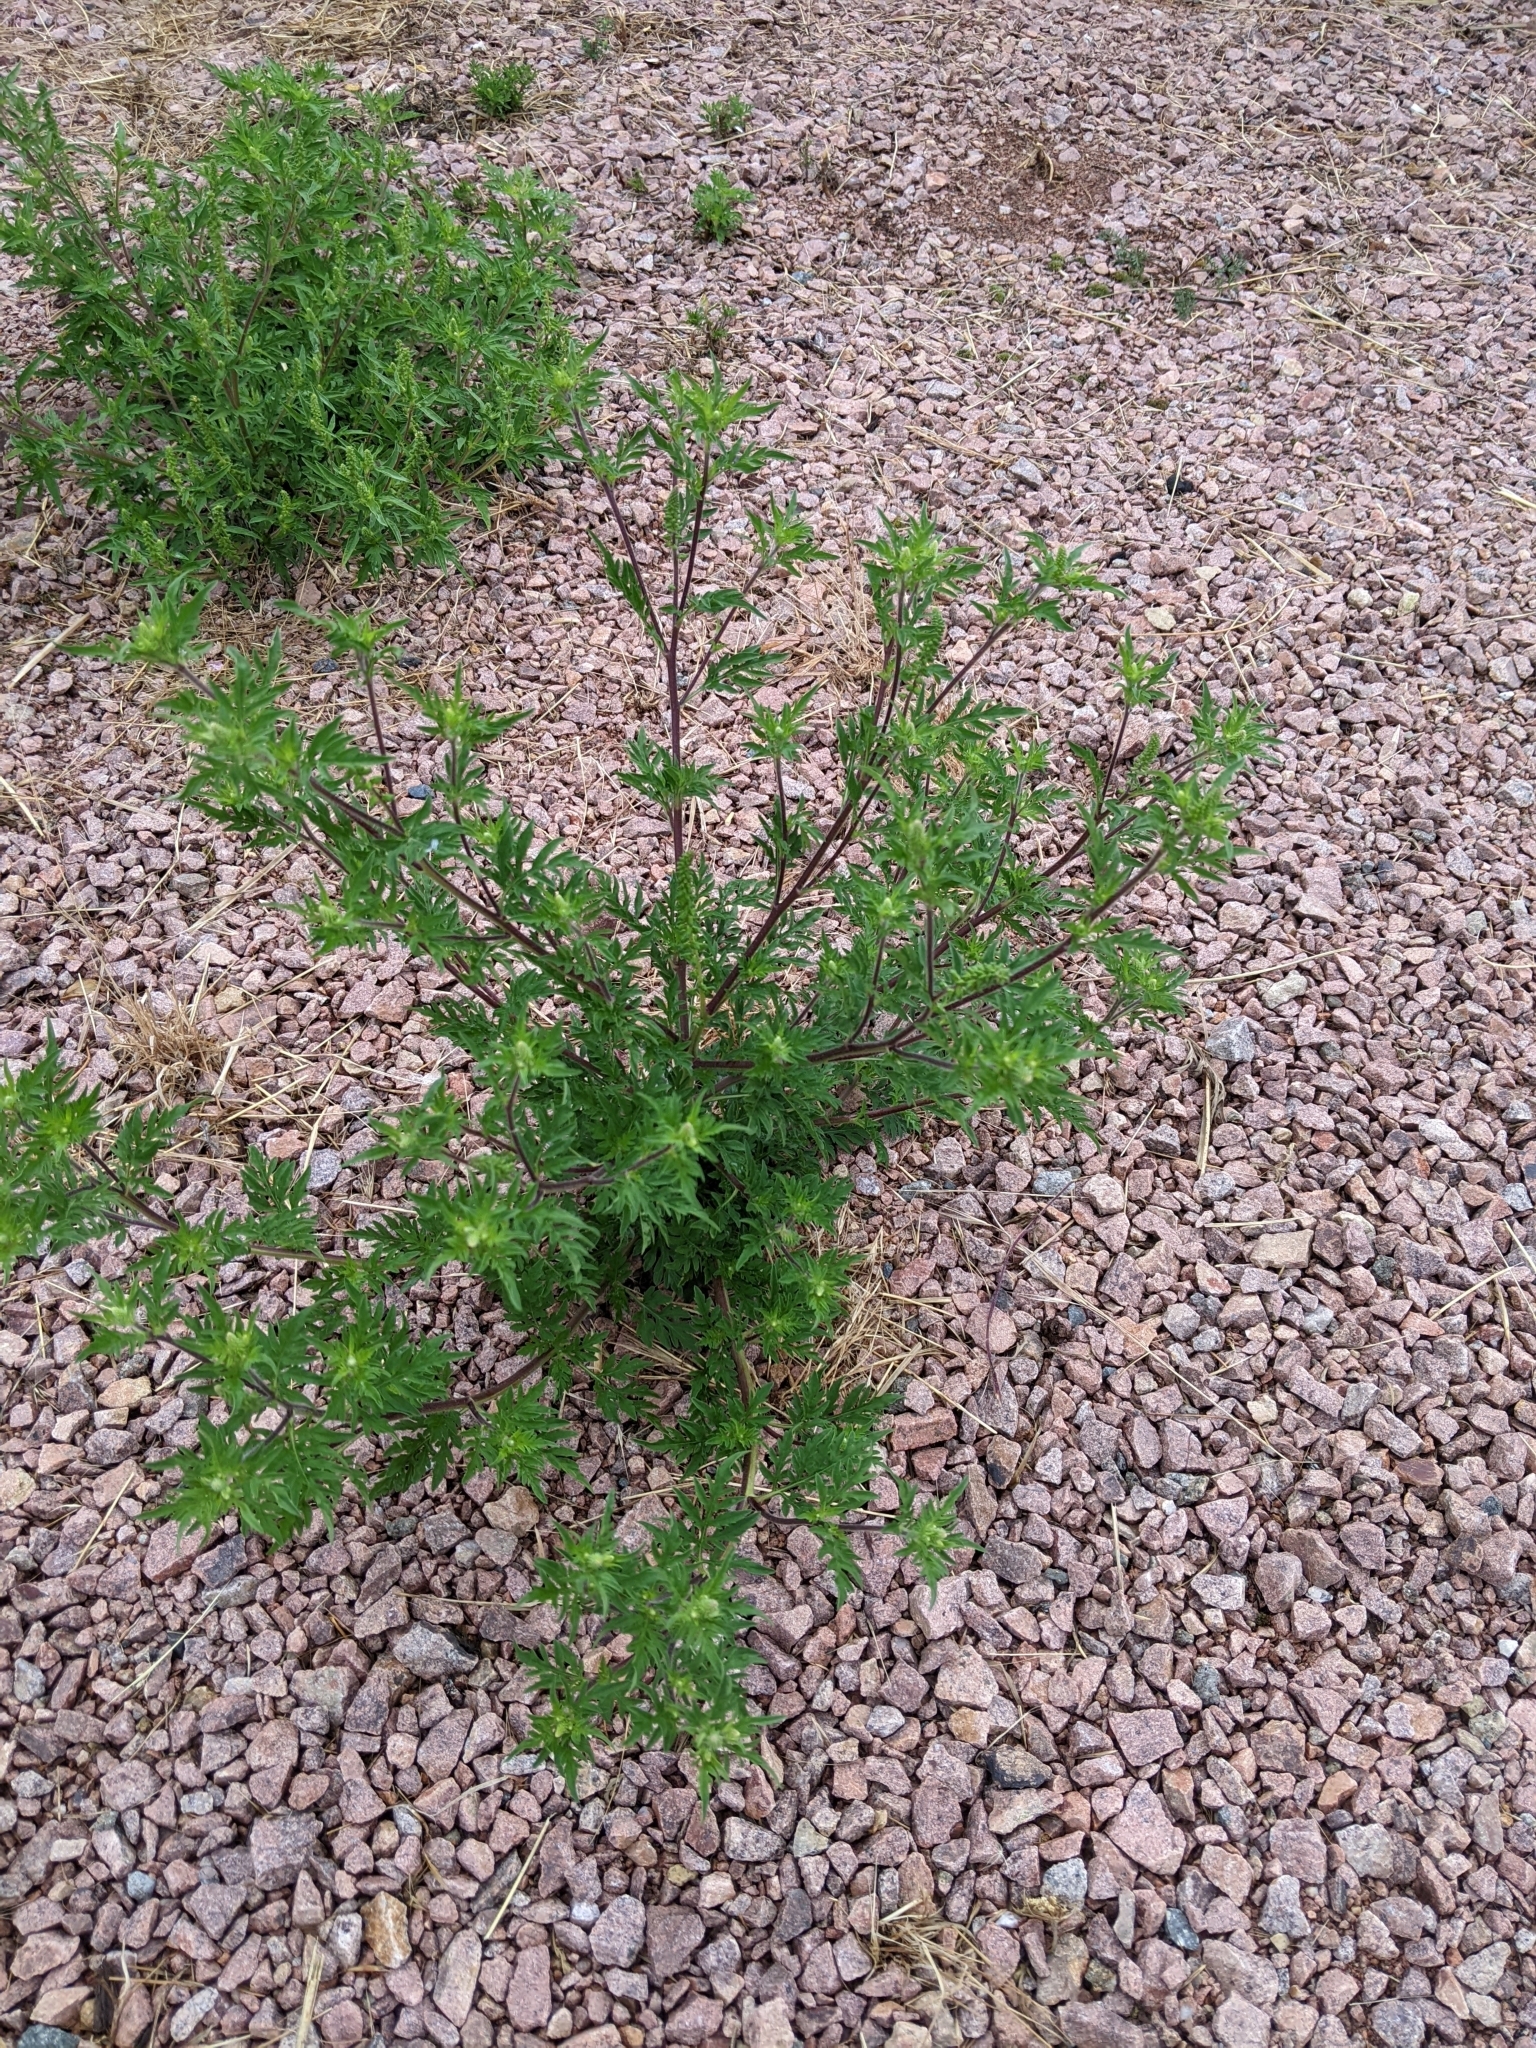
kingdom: Plantae
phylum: Tracheophyta
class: Magnoliopsida
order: Asterales
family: Asteraceae
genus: Ambrosia
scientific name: Ambrosia artemisiifolia
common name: Annual ragweed
